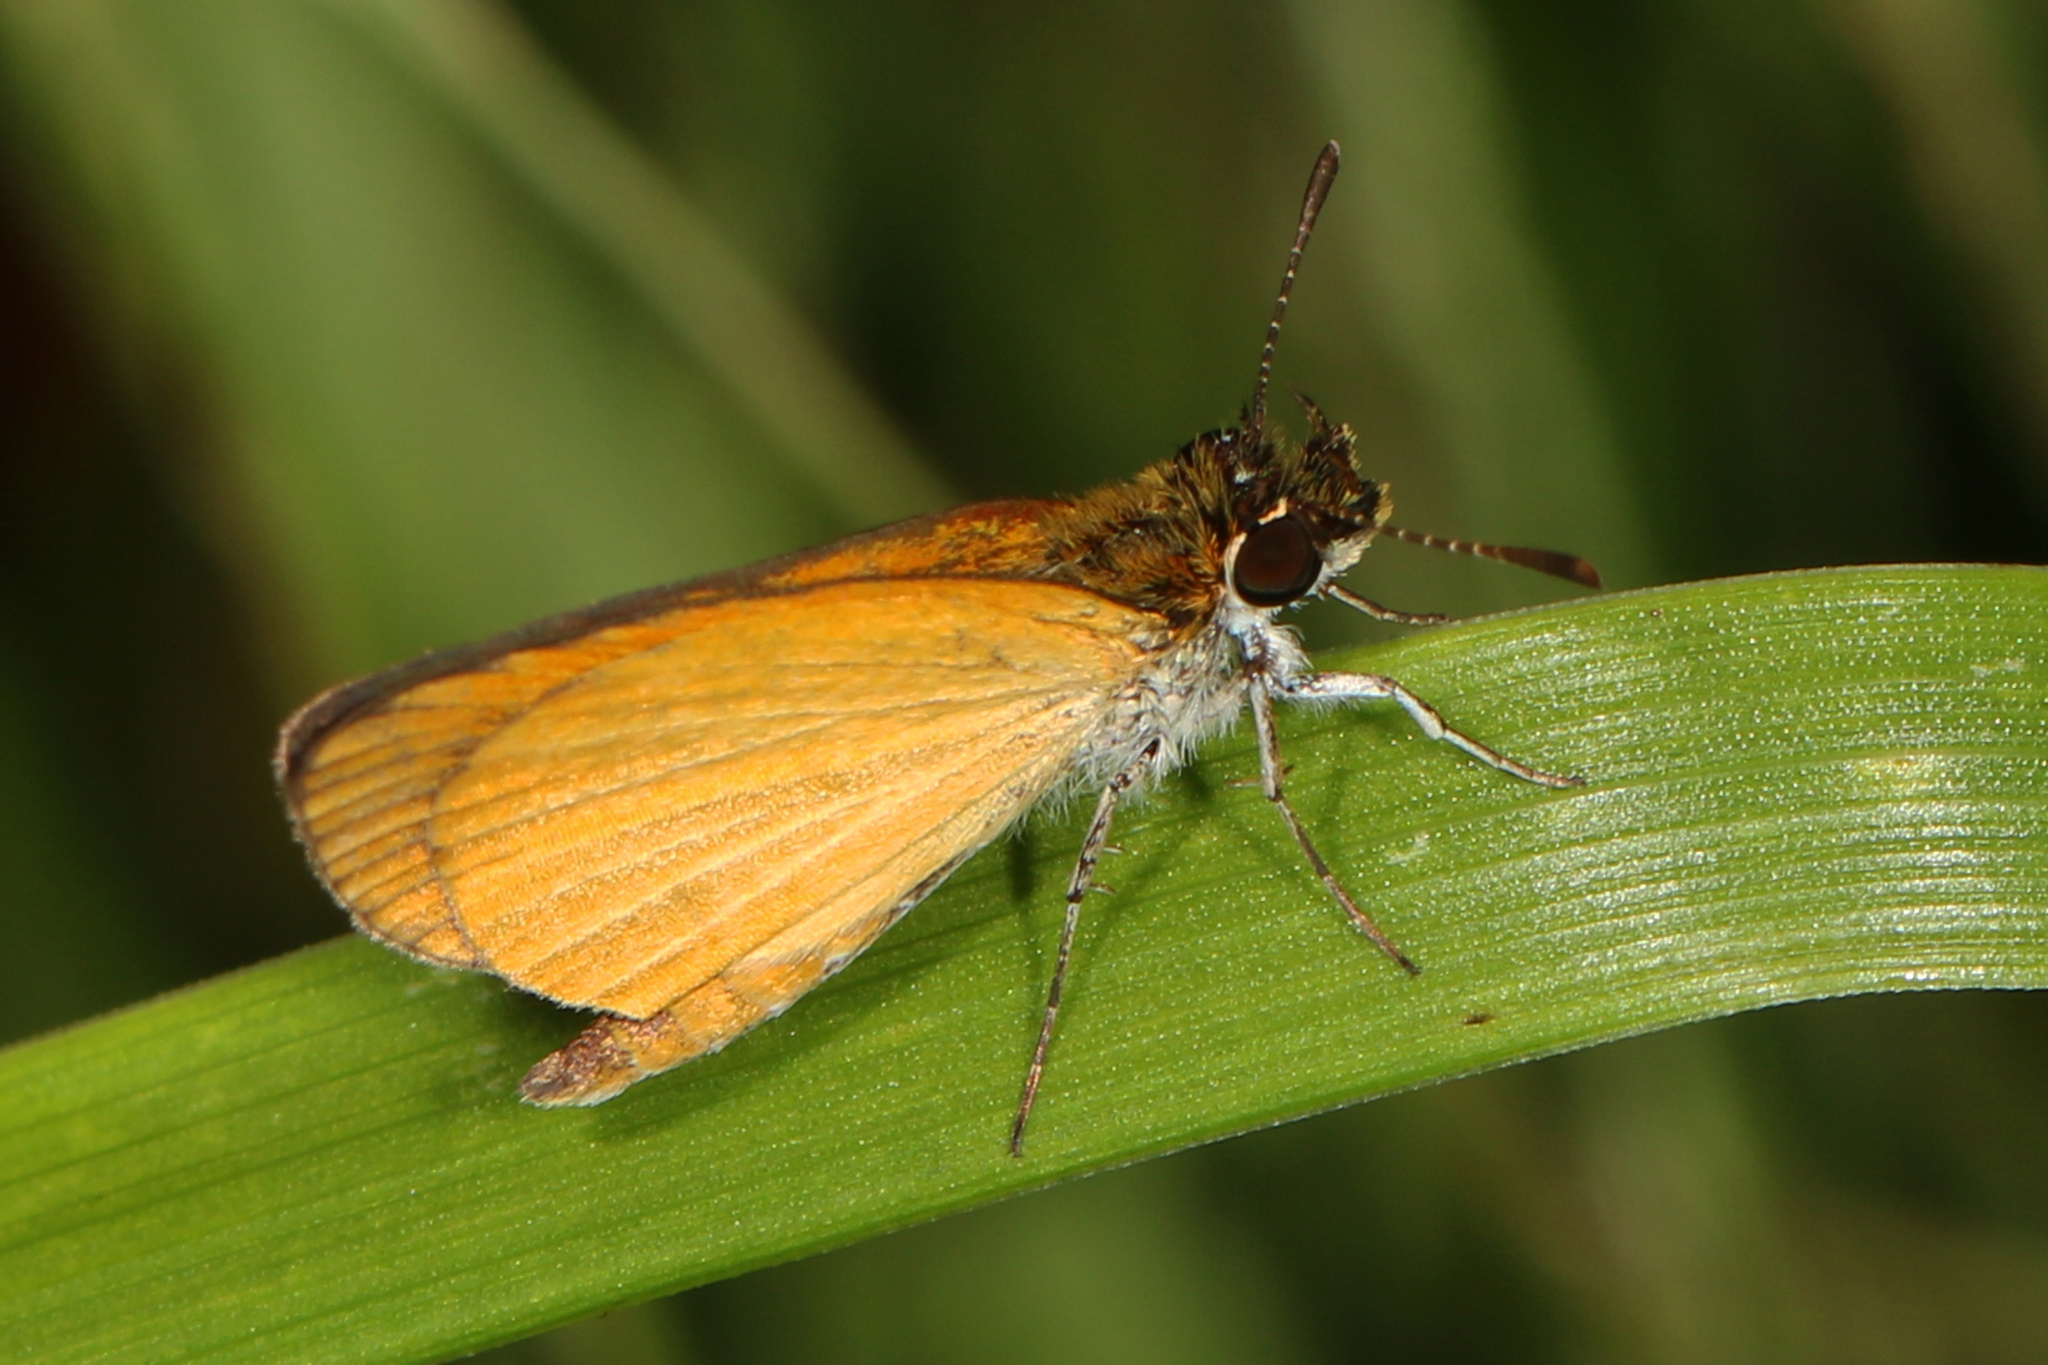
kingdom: Animalia
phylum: Arthropoda
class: Insecta
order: Lepidoptera
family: Hesperiidae
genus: Ancyloxypha
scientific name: Ancyloxypha numitor
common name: Least skipper
